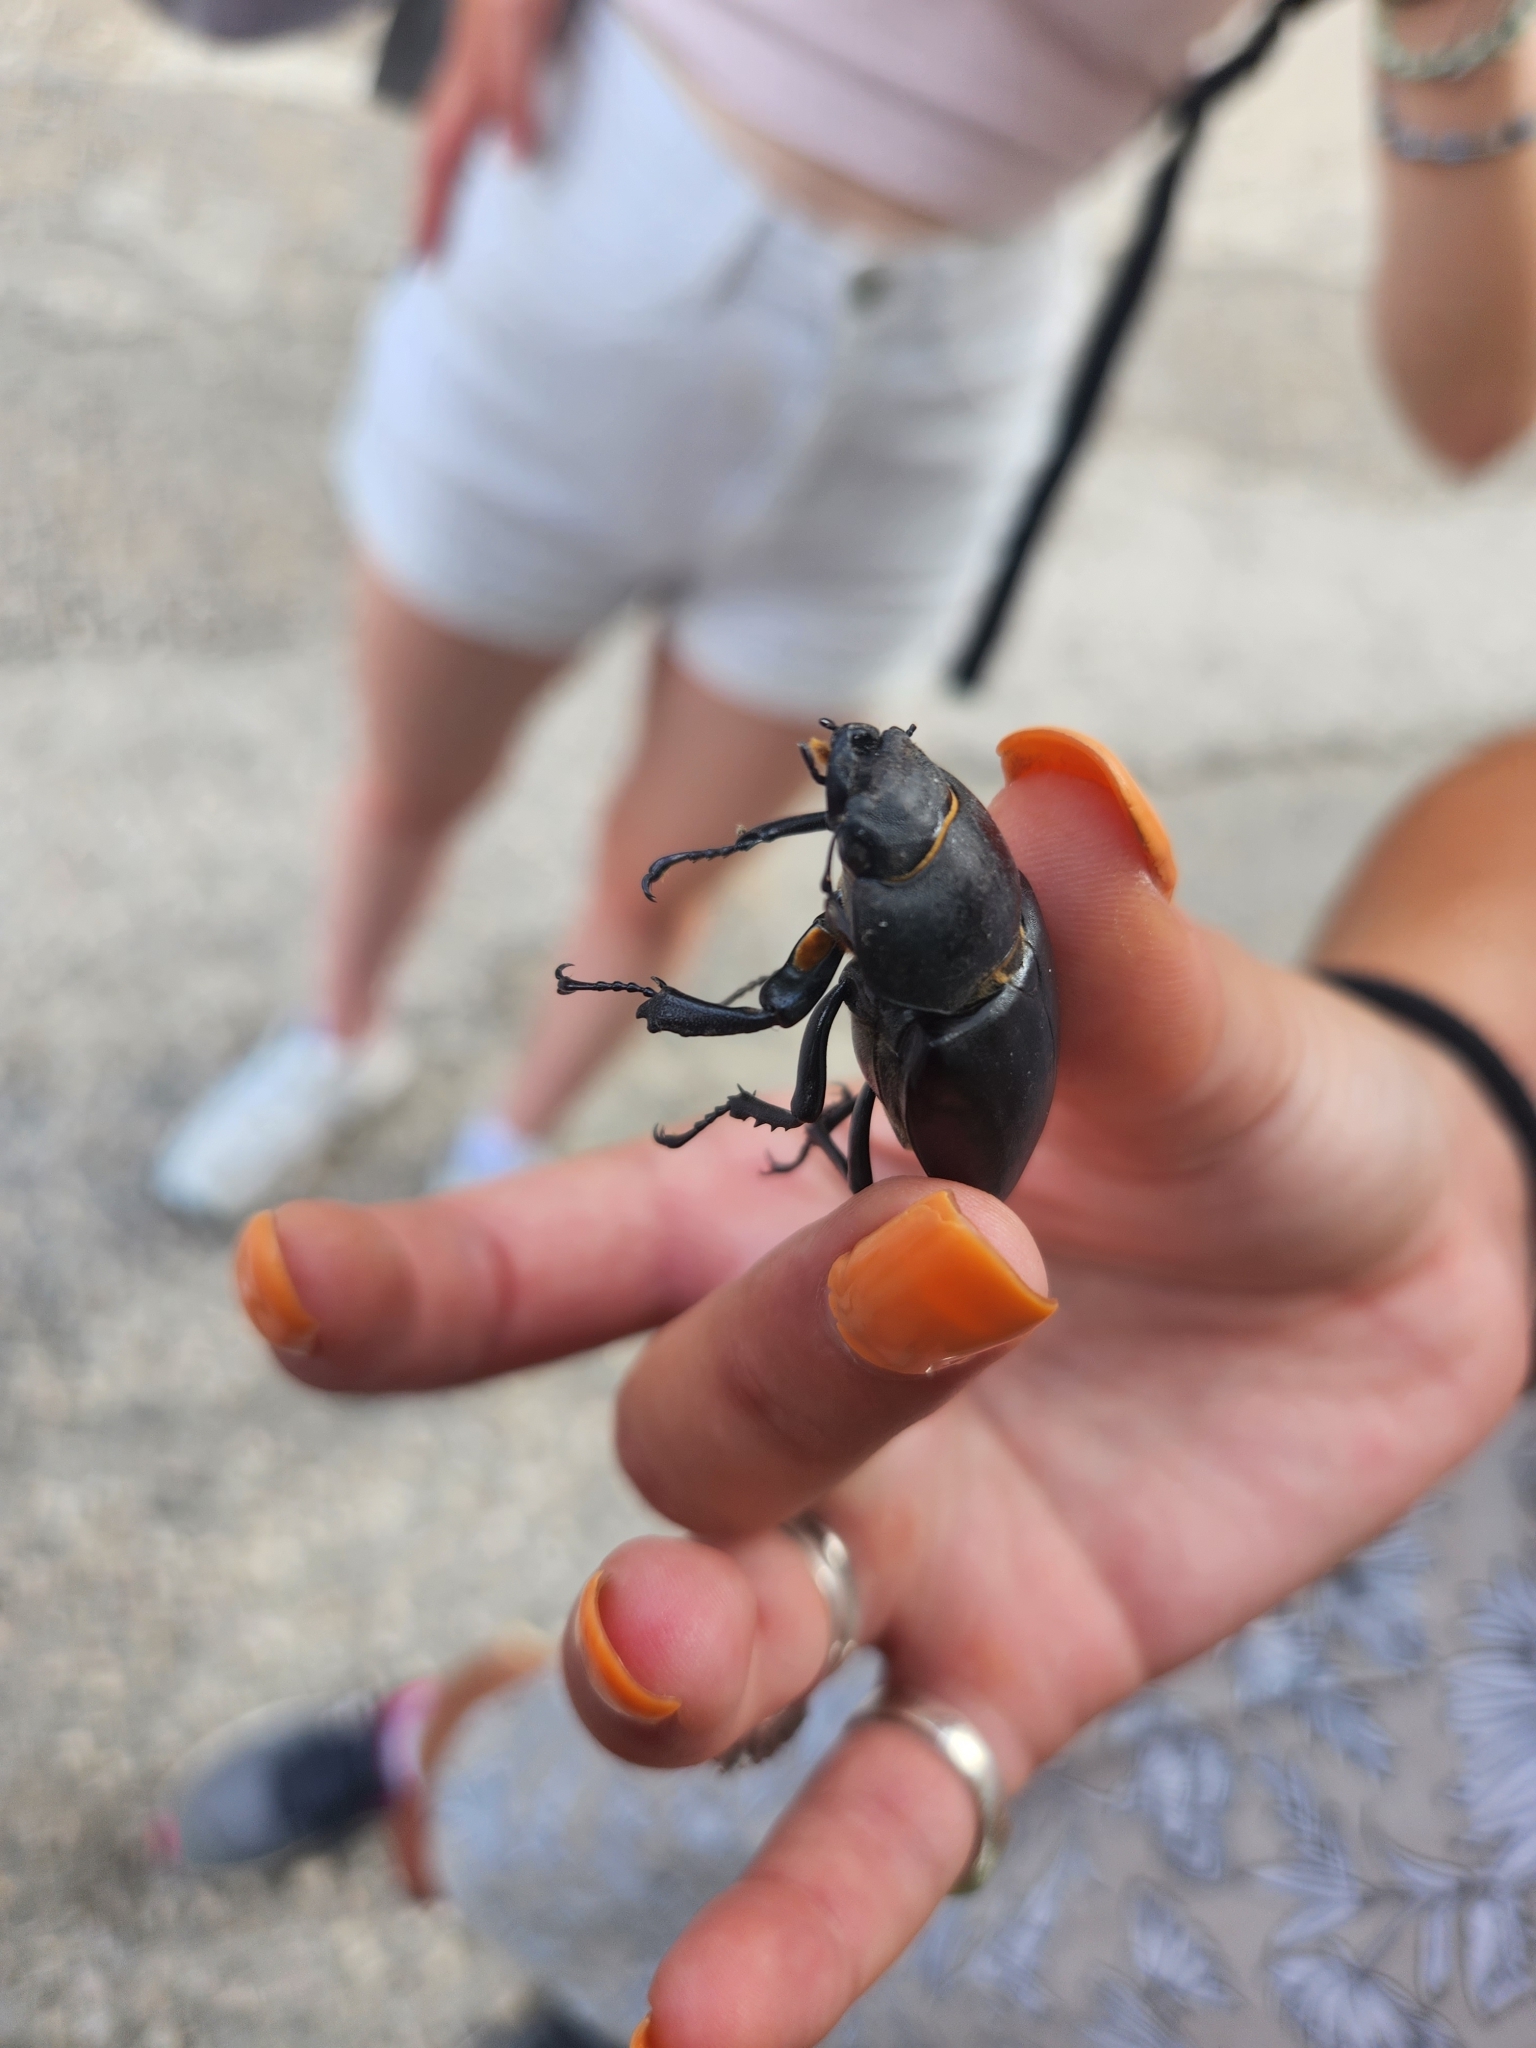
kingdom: Animalia
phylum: Arthropoda
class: Insecta
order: Coleoptera
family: Lucanidae
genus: Lucanus
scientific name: Lucanus cervus
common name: Stag beetle
